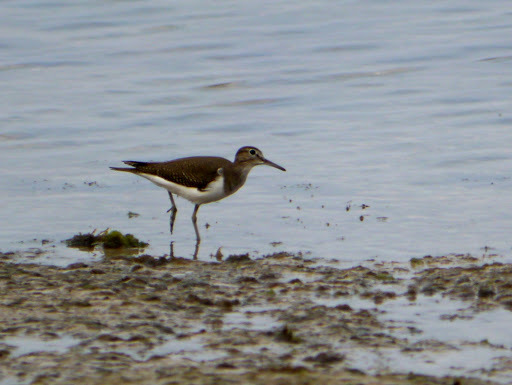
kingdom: Animalia
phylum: Chordata
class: Aves
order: Charadriiformes
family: Scolopacidae
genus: Actitis
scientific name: Actitis hypoleucos
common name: Common sandpiper
